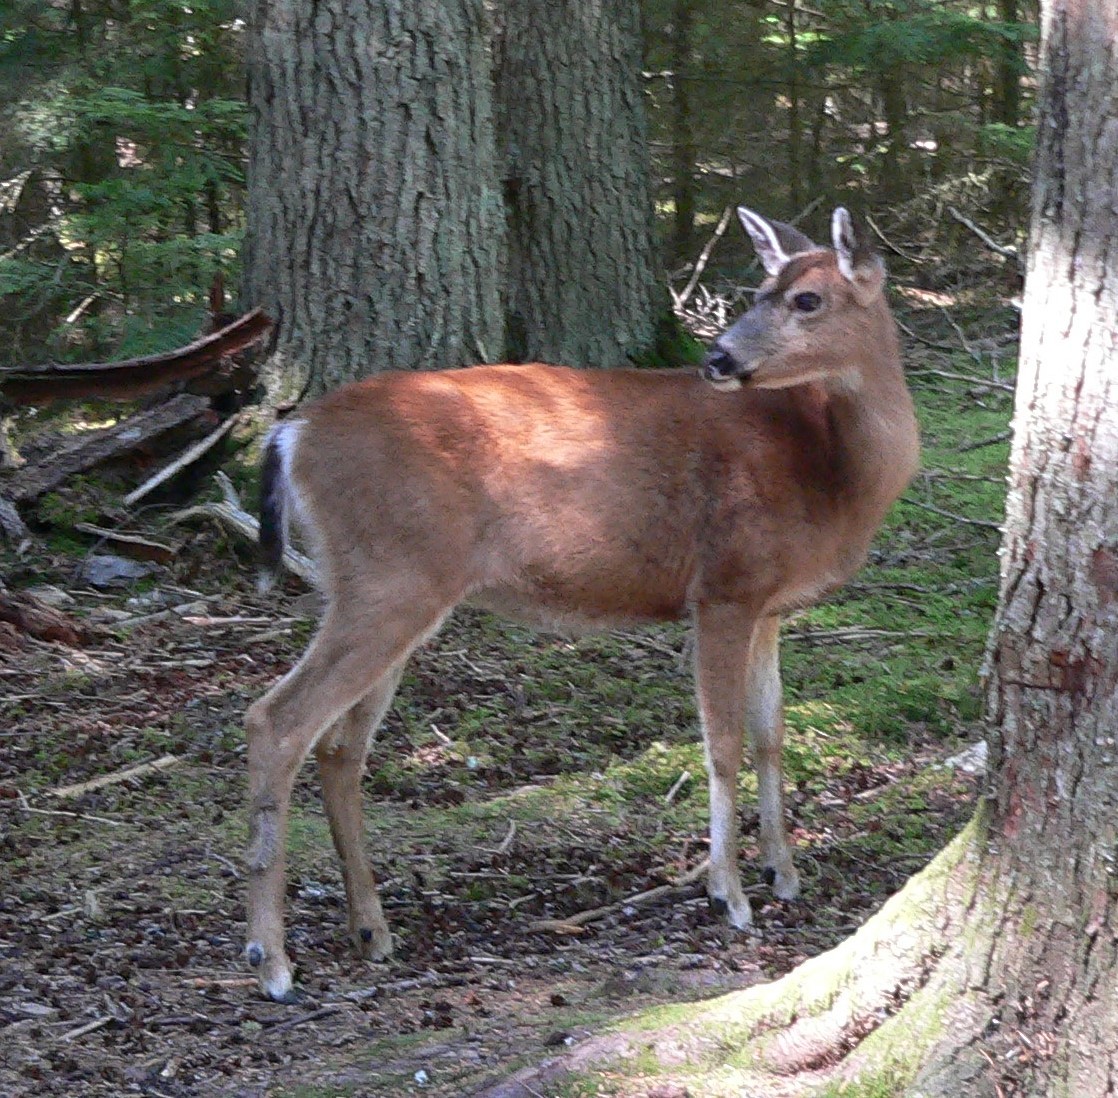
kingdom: Animalia
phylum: Chordata
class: Mammalia
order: Artiodactyla
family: Cervidae
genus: Odocoileus
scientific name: Odocoileus hemionus
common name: Mule deer
